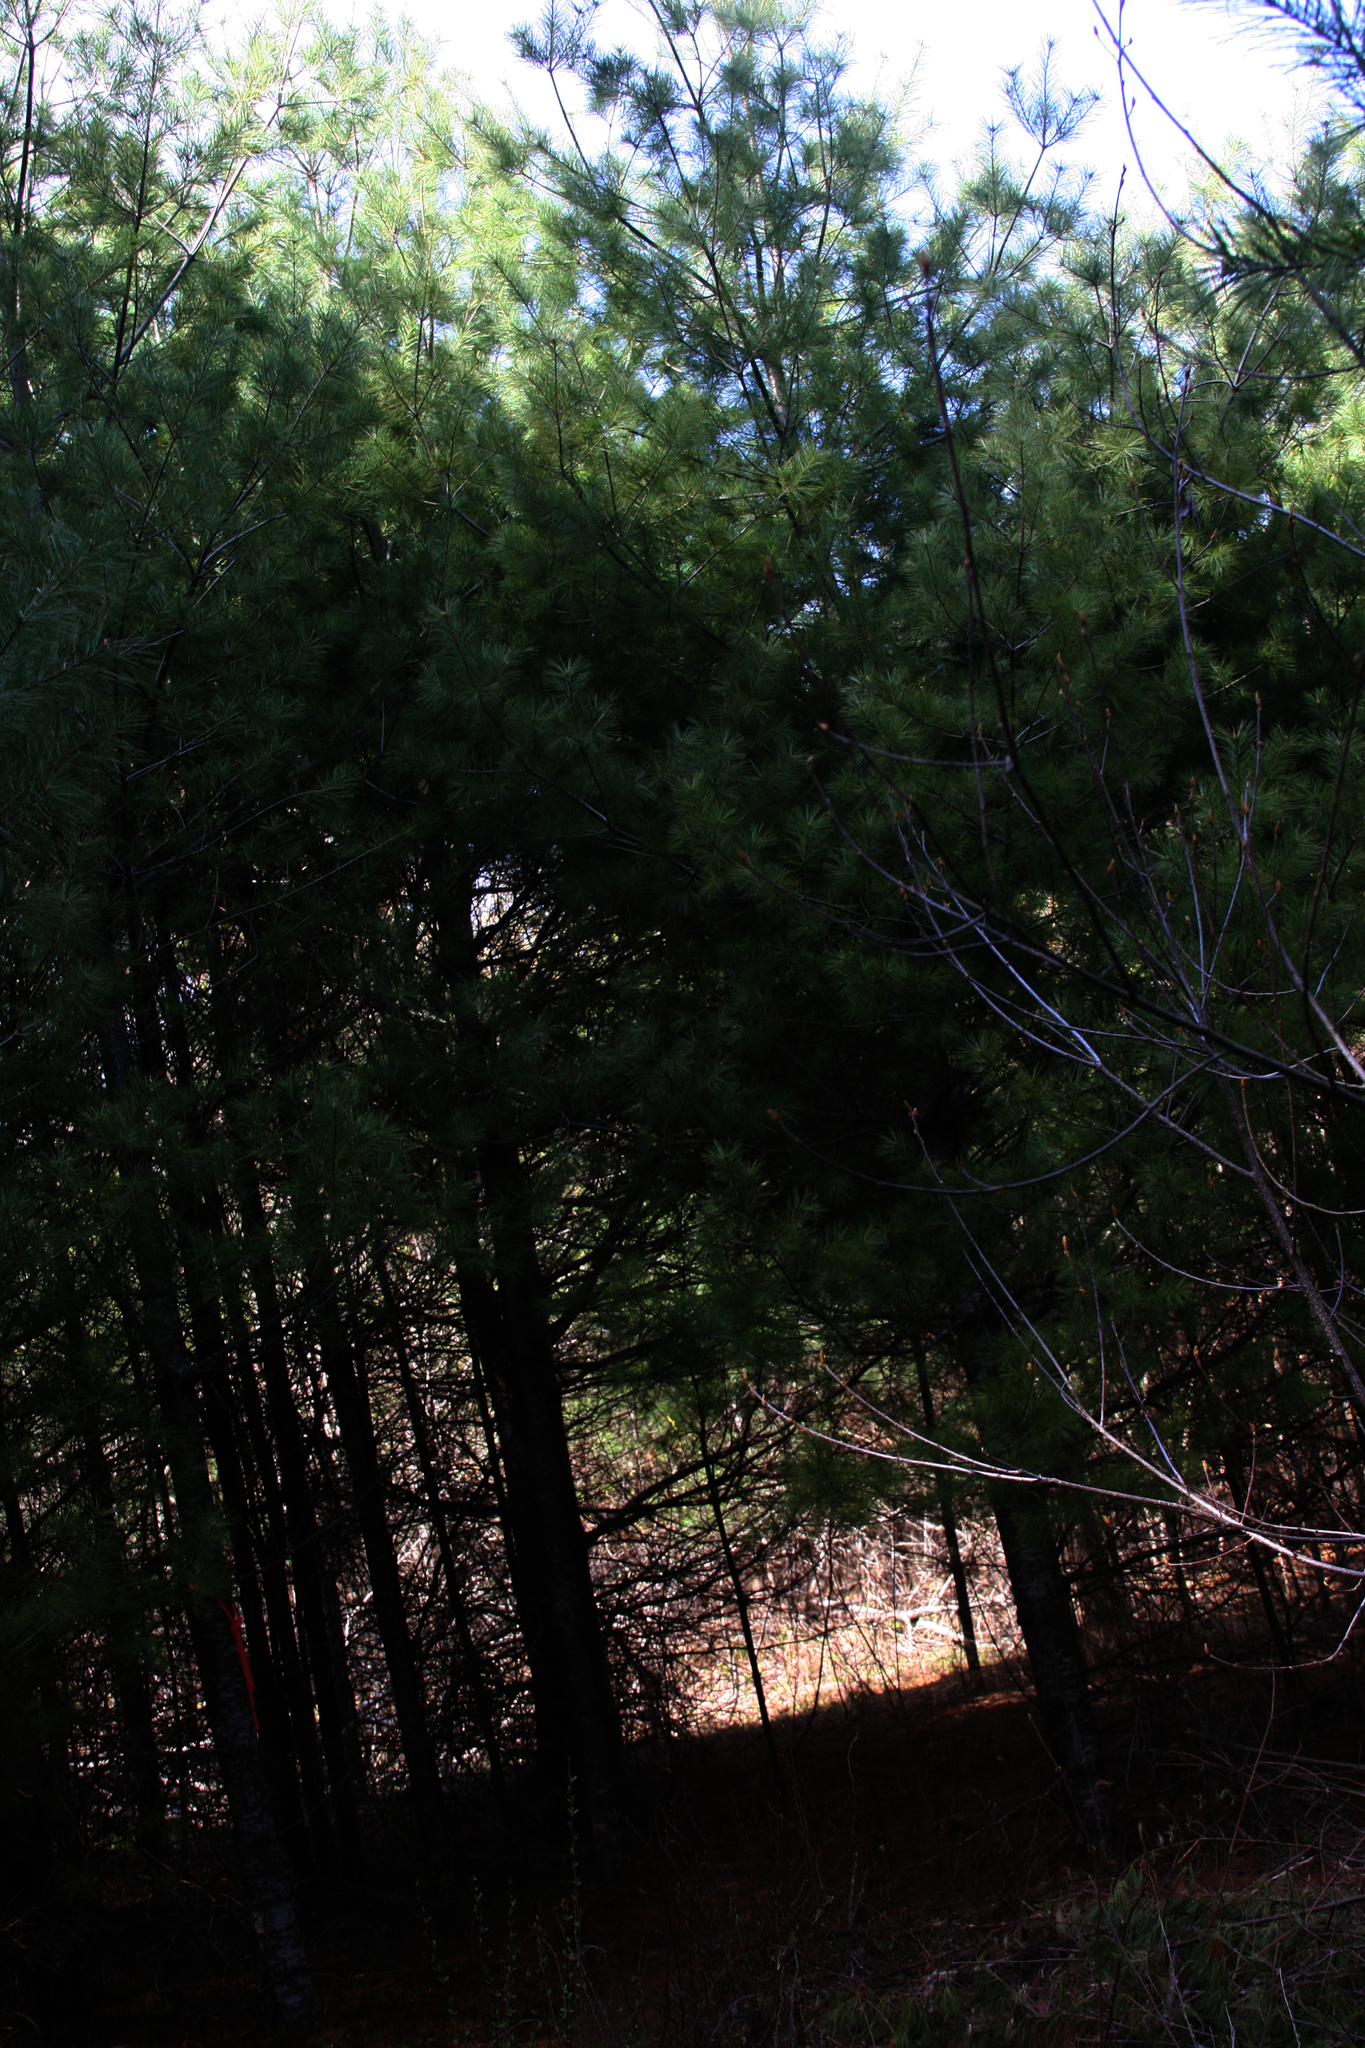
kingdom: Plantae
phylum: Tracheophyta
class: Pinopsida
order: Pinales
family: Pinaceae
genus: Pinus
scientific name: Pinus strobus
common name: Weymouth pine
